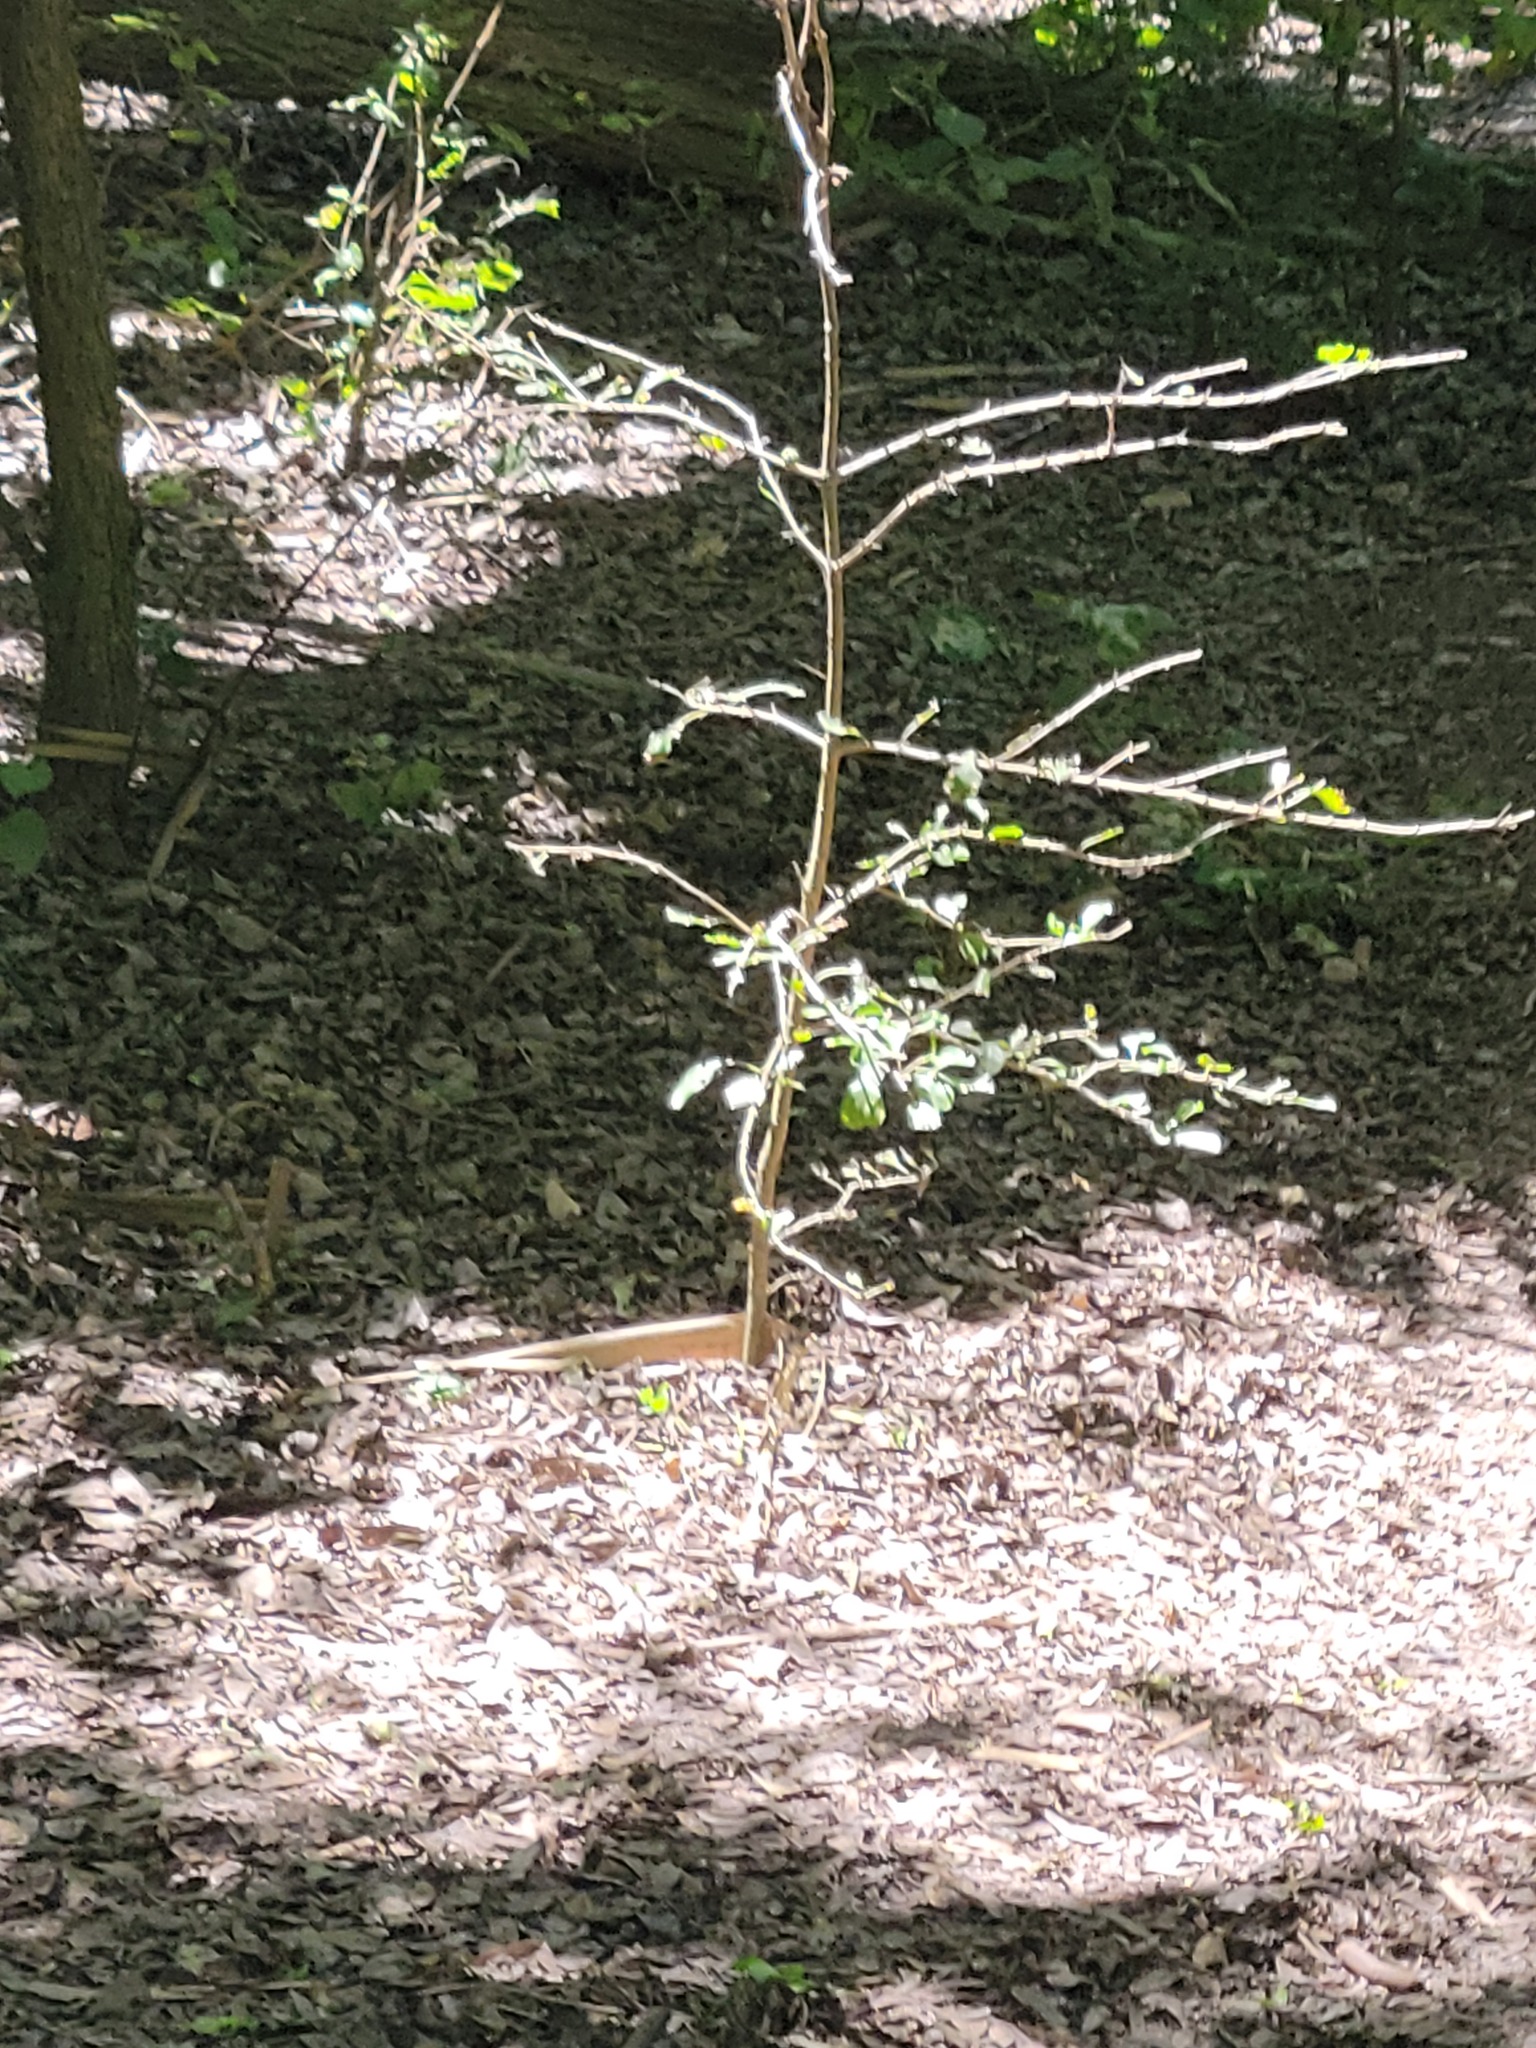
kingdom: Plantae
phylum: Tracheophyta
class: Magnoliopsida
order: Gentianales
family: Rubiaceae
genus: Randia
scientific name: Randia obcordata
